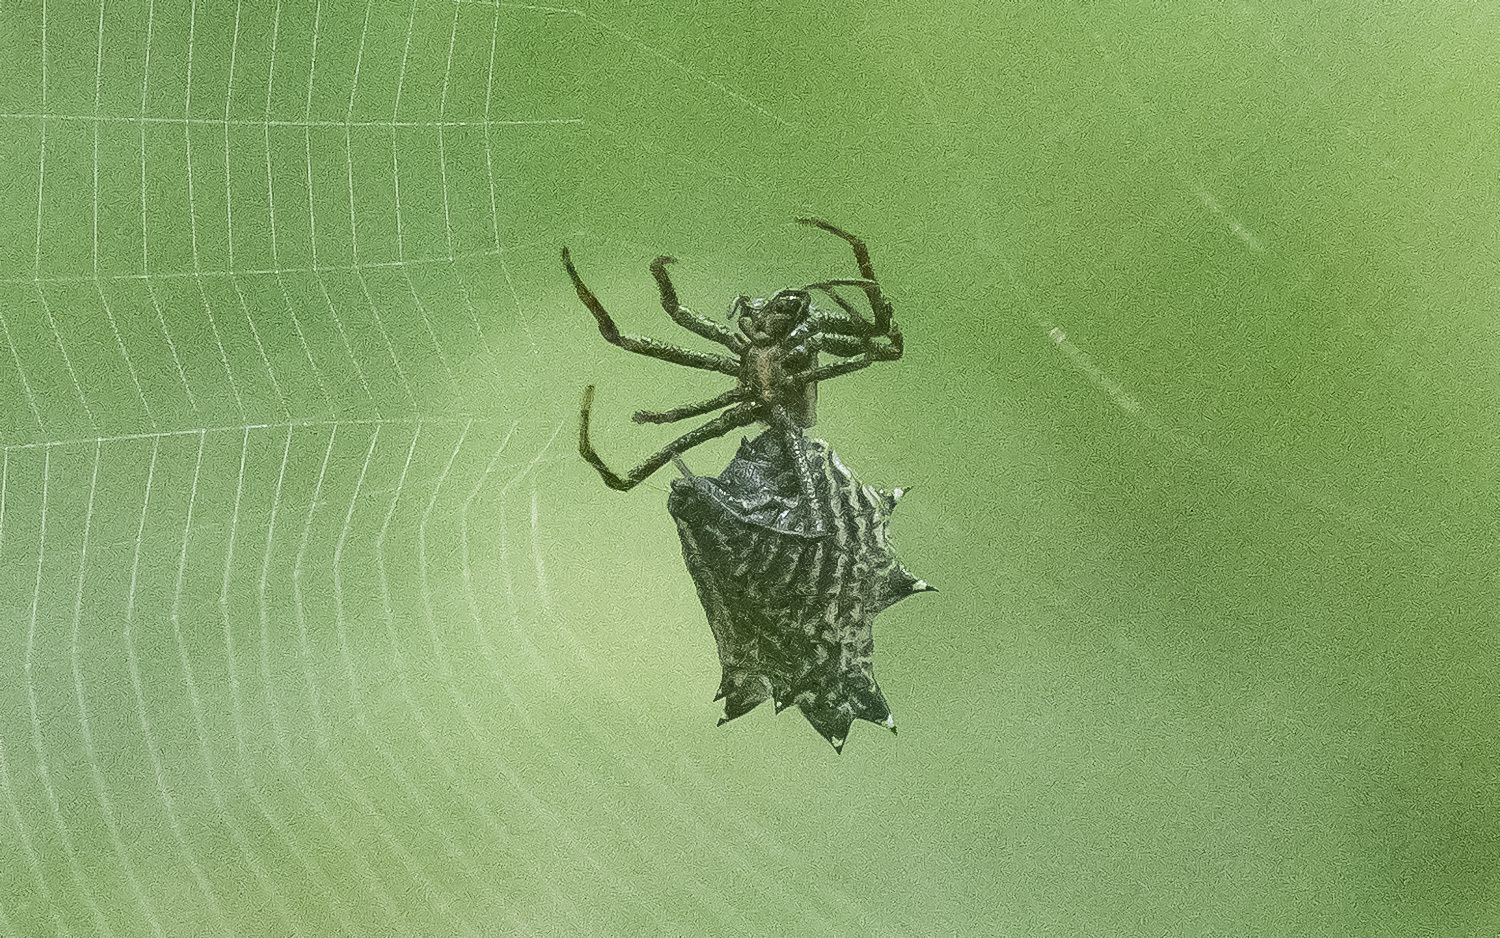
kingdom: Animalia
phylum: Arthropoda
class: Arachnida
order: Araneae
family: Araneidae
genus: Micrathena
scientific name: Micrathena gracilis
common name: Orb weavers
